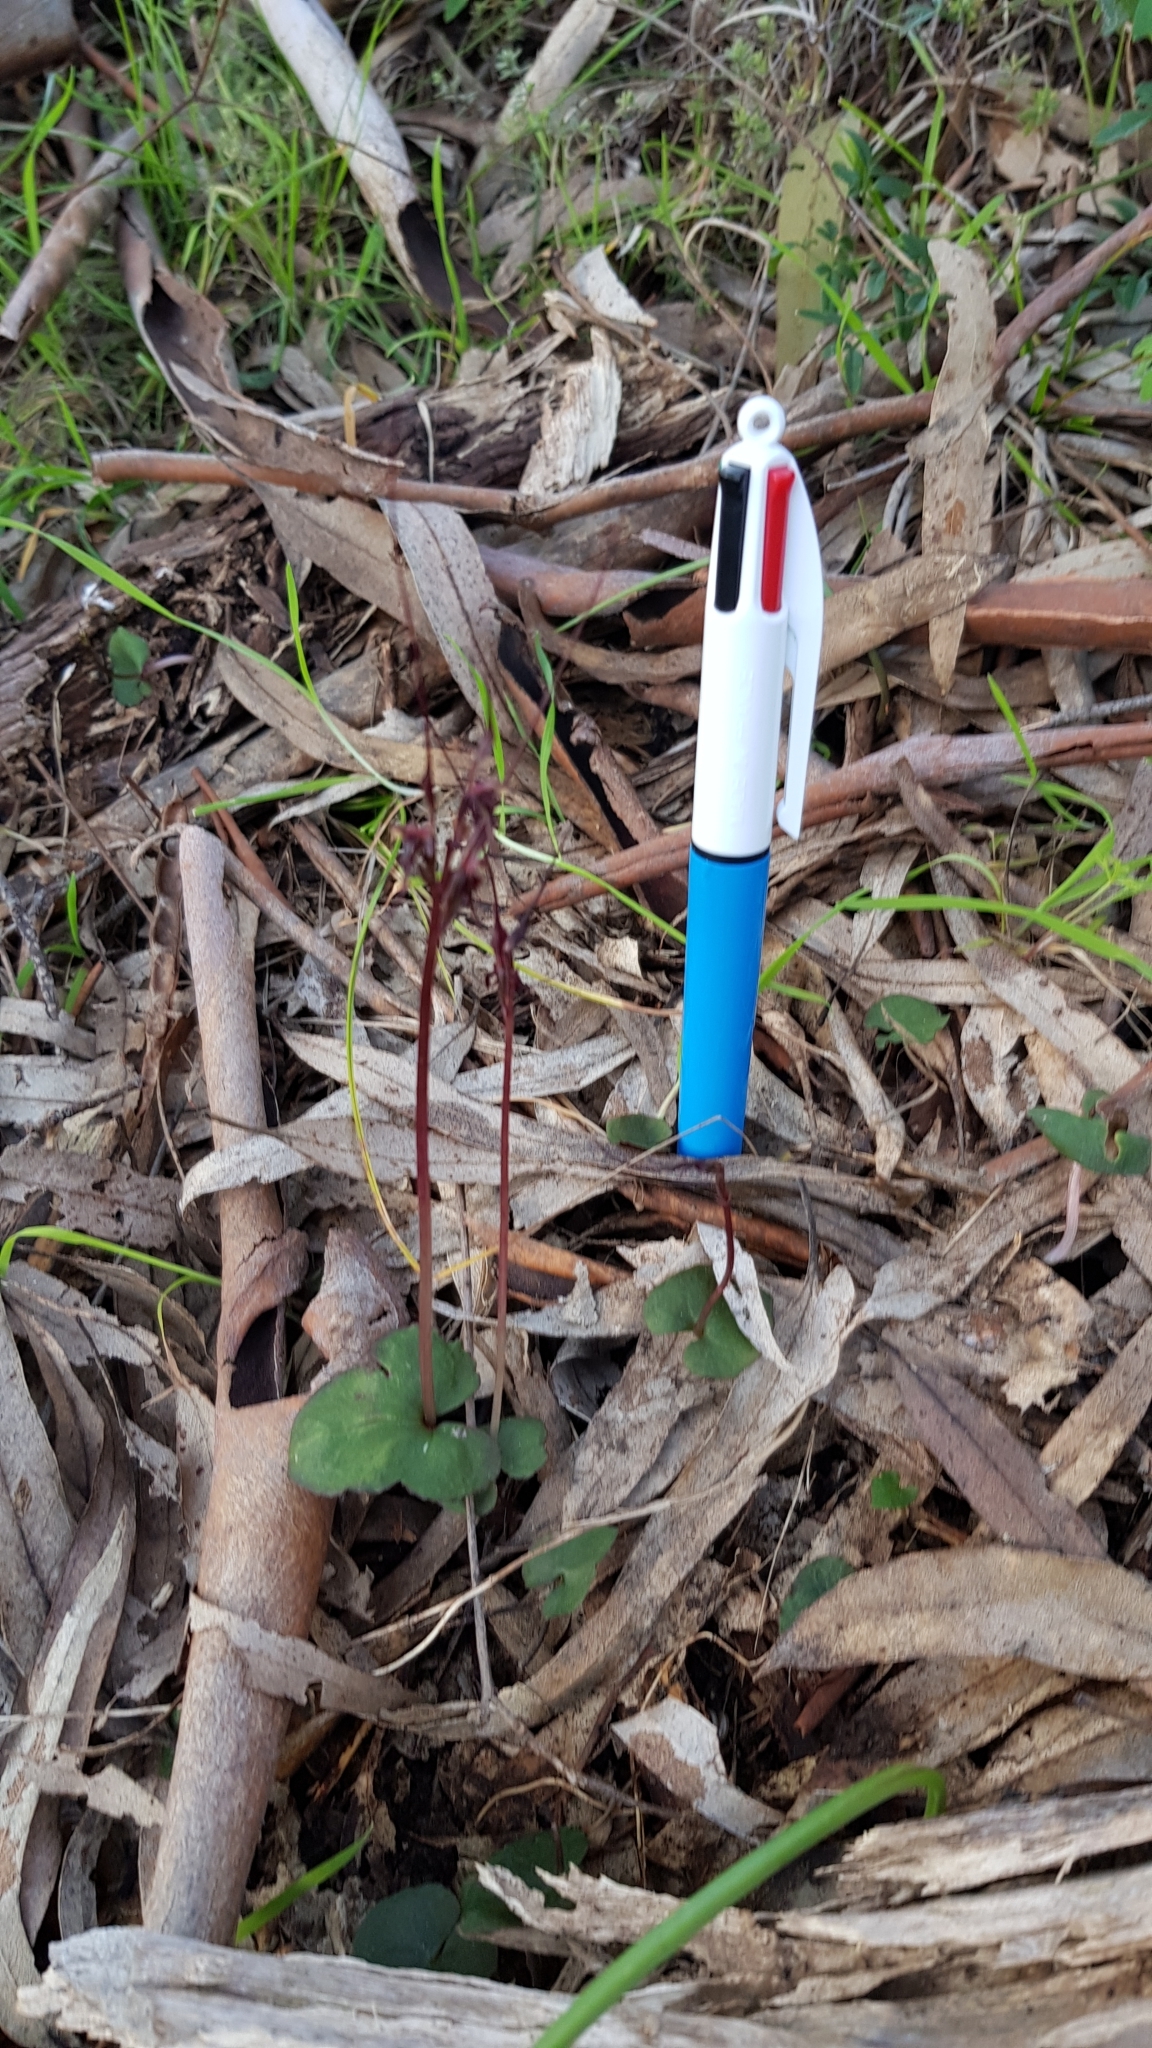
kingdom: Plantae
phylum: Tracheophyta
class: Liliopsida
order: Asparagales
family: Orchidaceae
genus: Acianthus
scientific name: Acianthus caudatus
